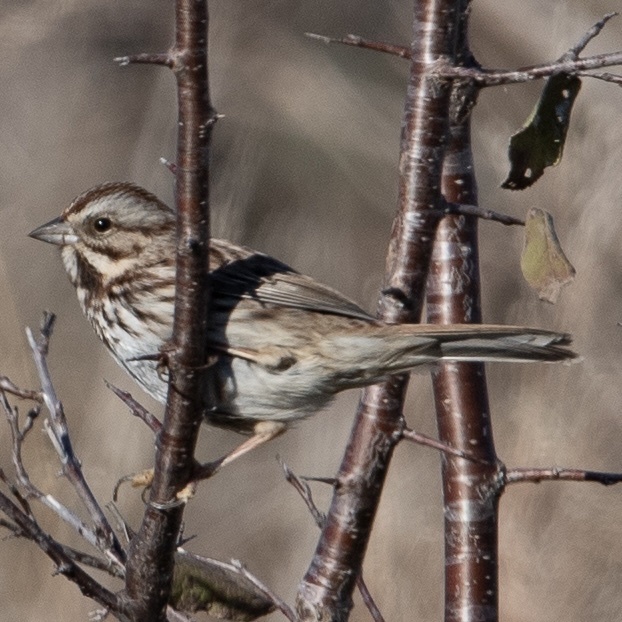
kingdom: Animalia
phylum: Chordata
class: Aves
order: Passeriformes
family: Passerellidae
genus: Melospiza
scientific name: Melospiza melodia
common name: Song sparrow
